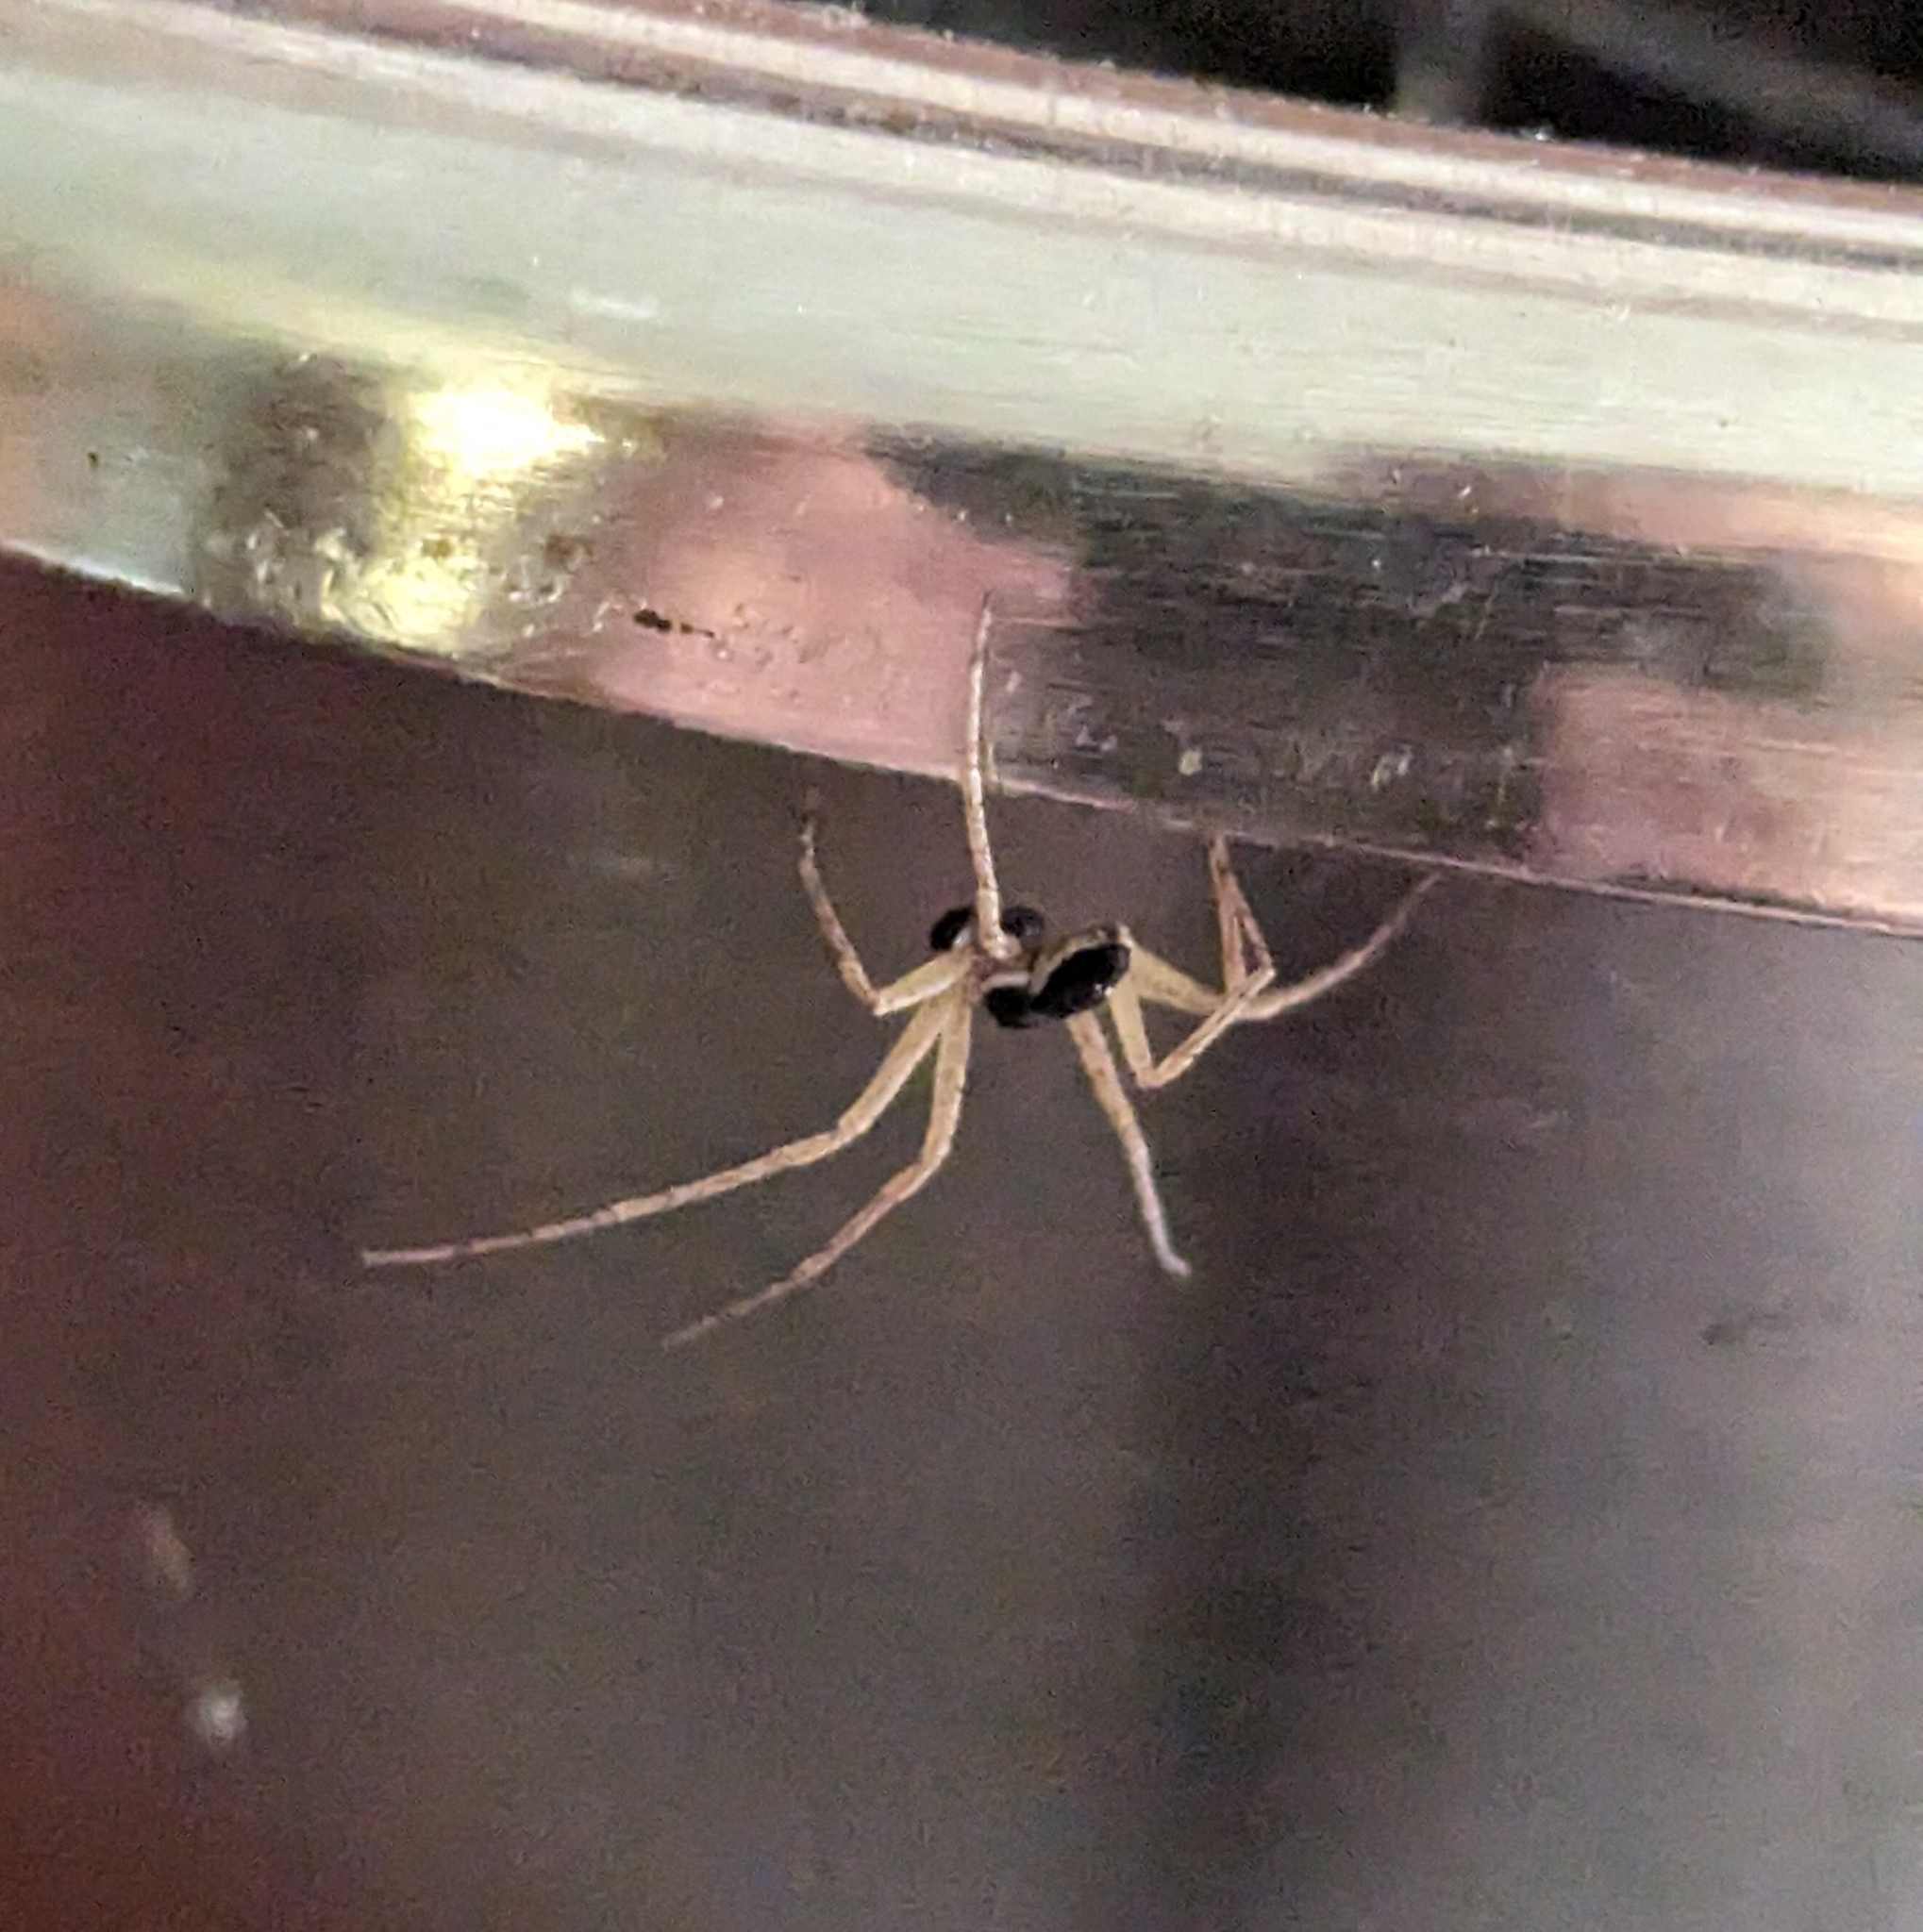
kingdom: Animalia
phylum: Arthropoda
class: Arachnida
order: Araneae
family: Philodromidae
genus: Philodromus
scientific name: Philodromus dispar
